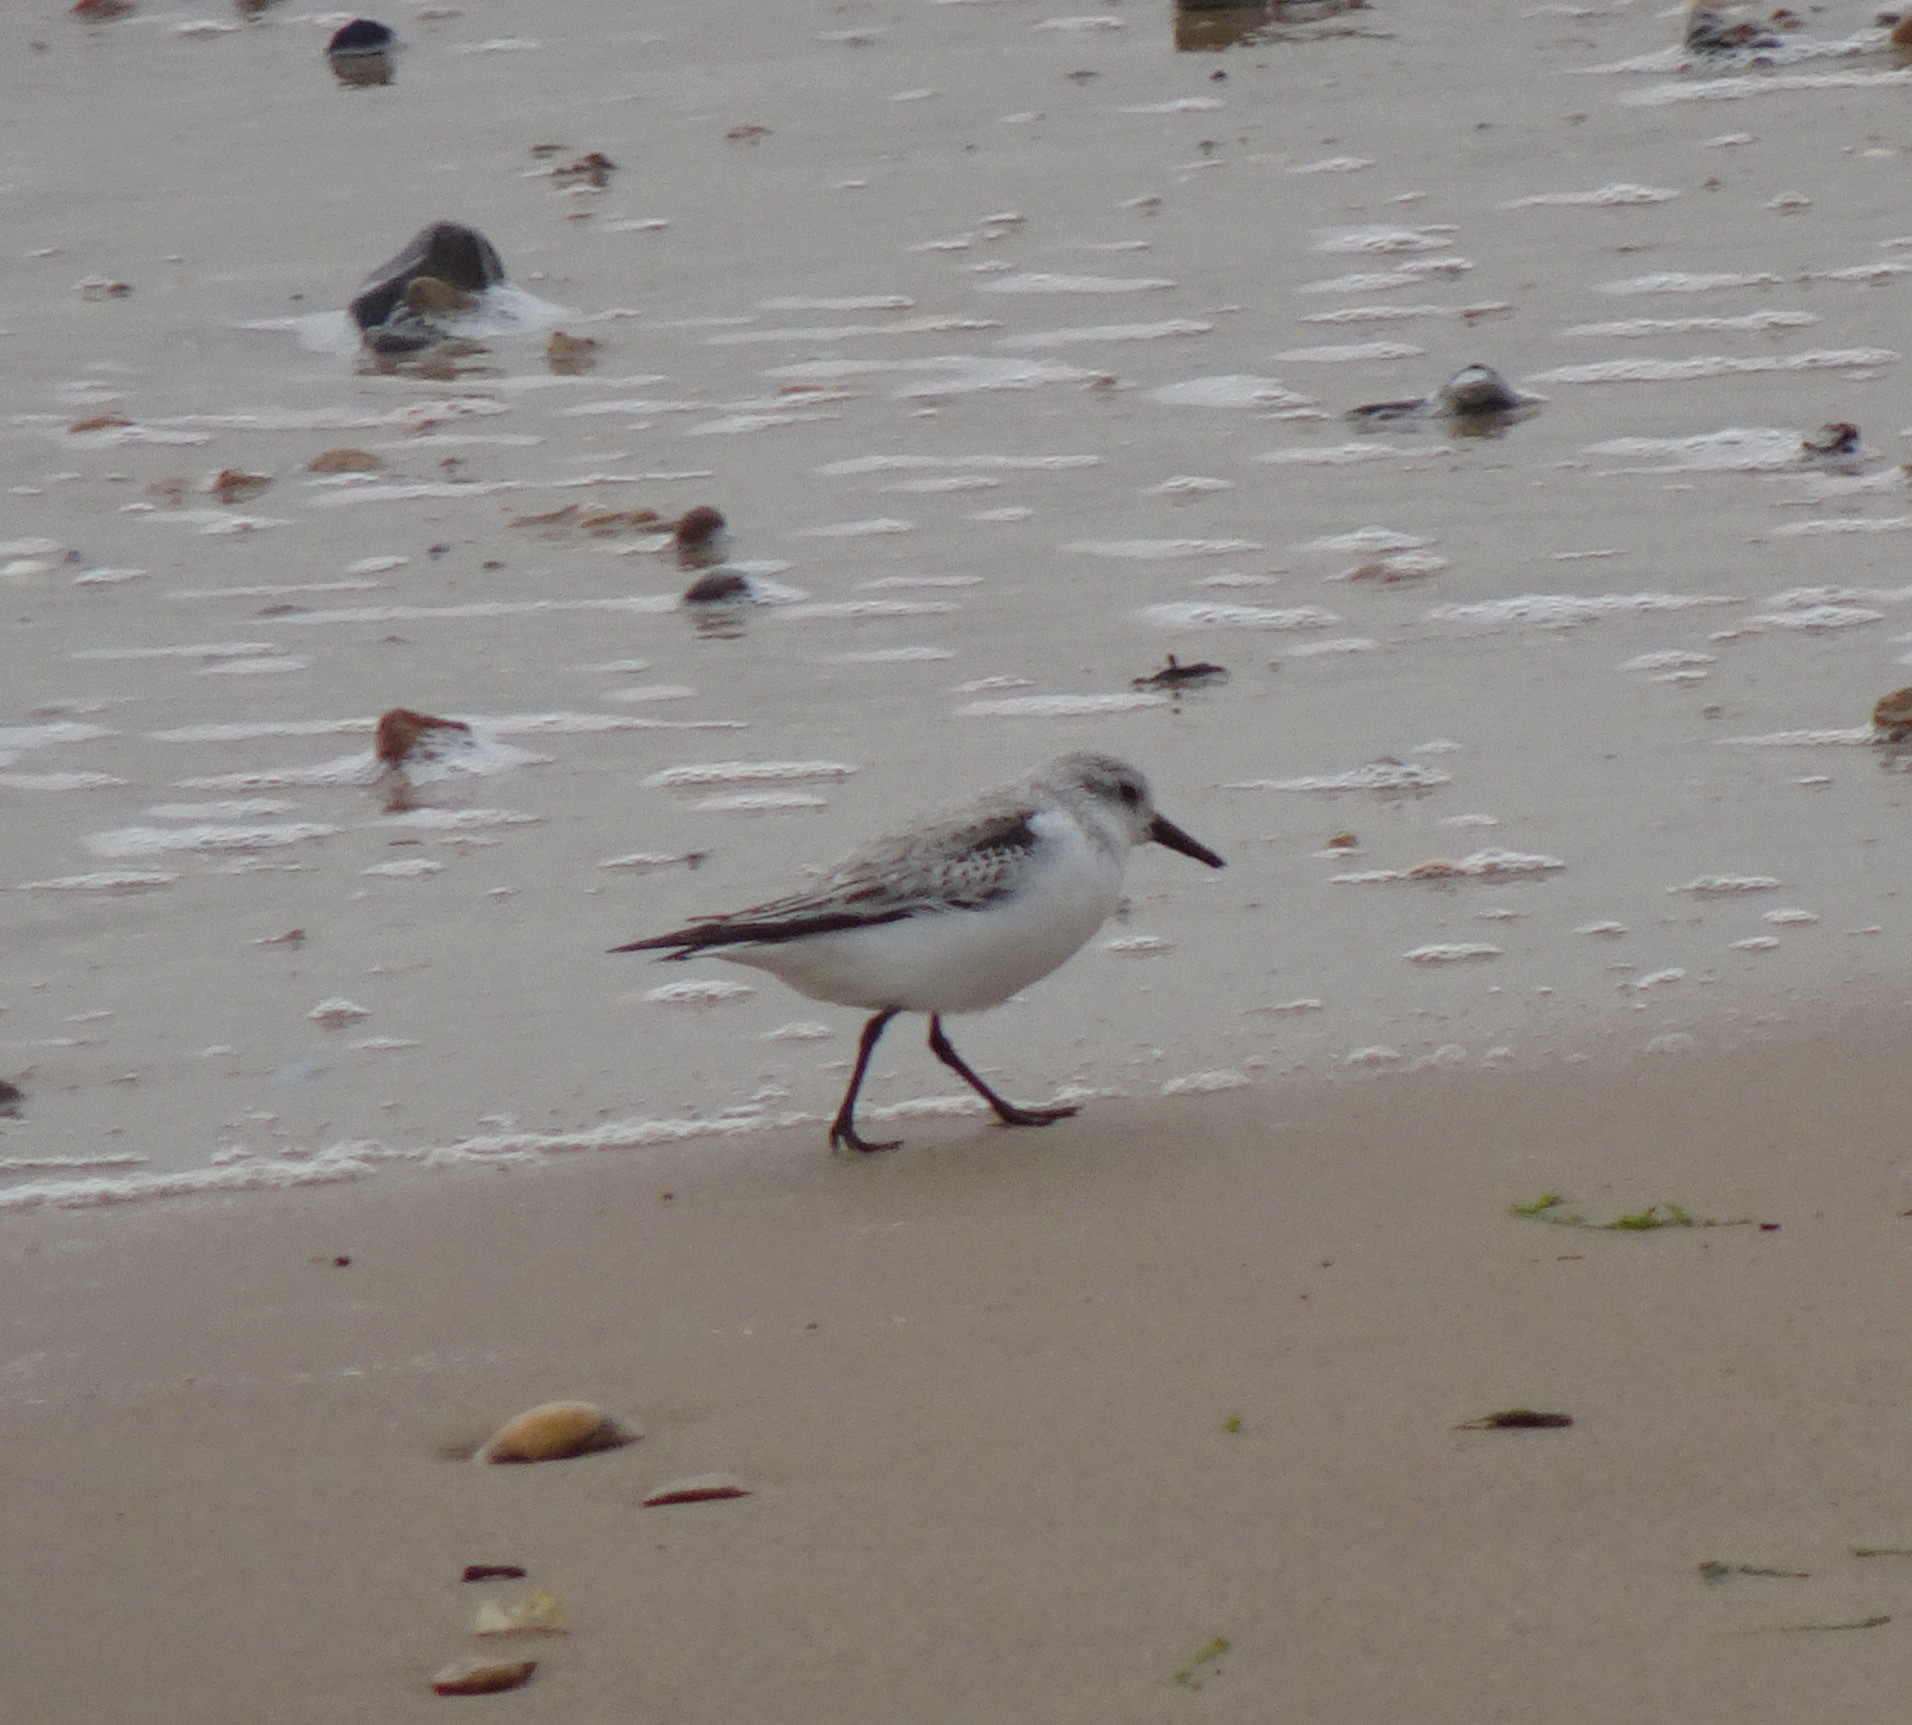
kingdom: Animalia
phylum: Chordata
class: Aves
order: Charadriiformes
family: Scolopacidae
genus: Calidris
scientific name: Calidris alba
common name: Sanderling
